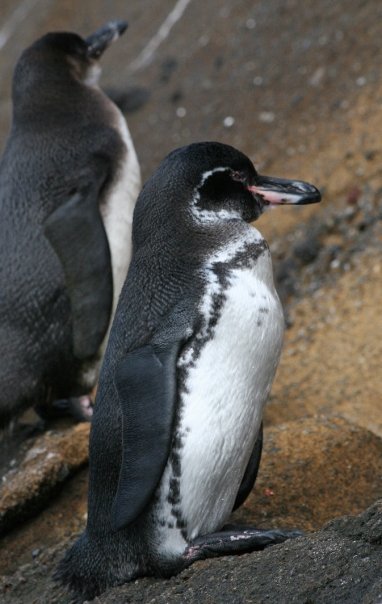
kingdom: Animalia
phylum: Chordata
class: Aves
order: Sphenisciformes
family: Spheniscidae
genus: Spheniscus
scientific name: Spheniscus mendiculus
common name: Galapagos penguin
